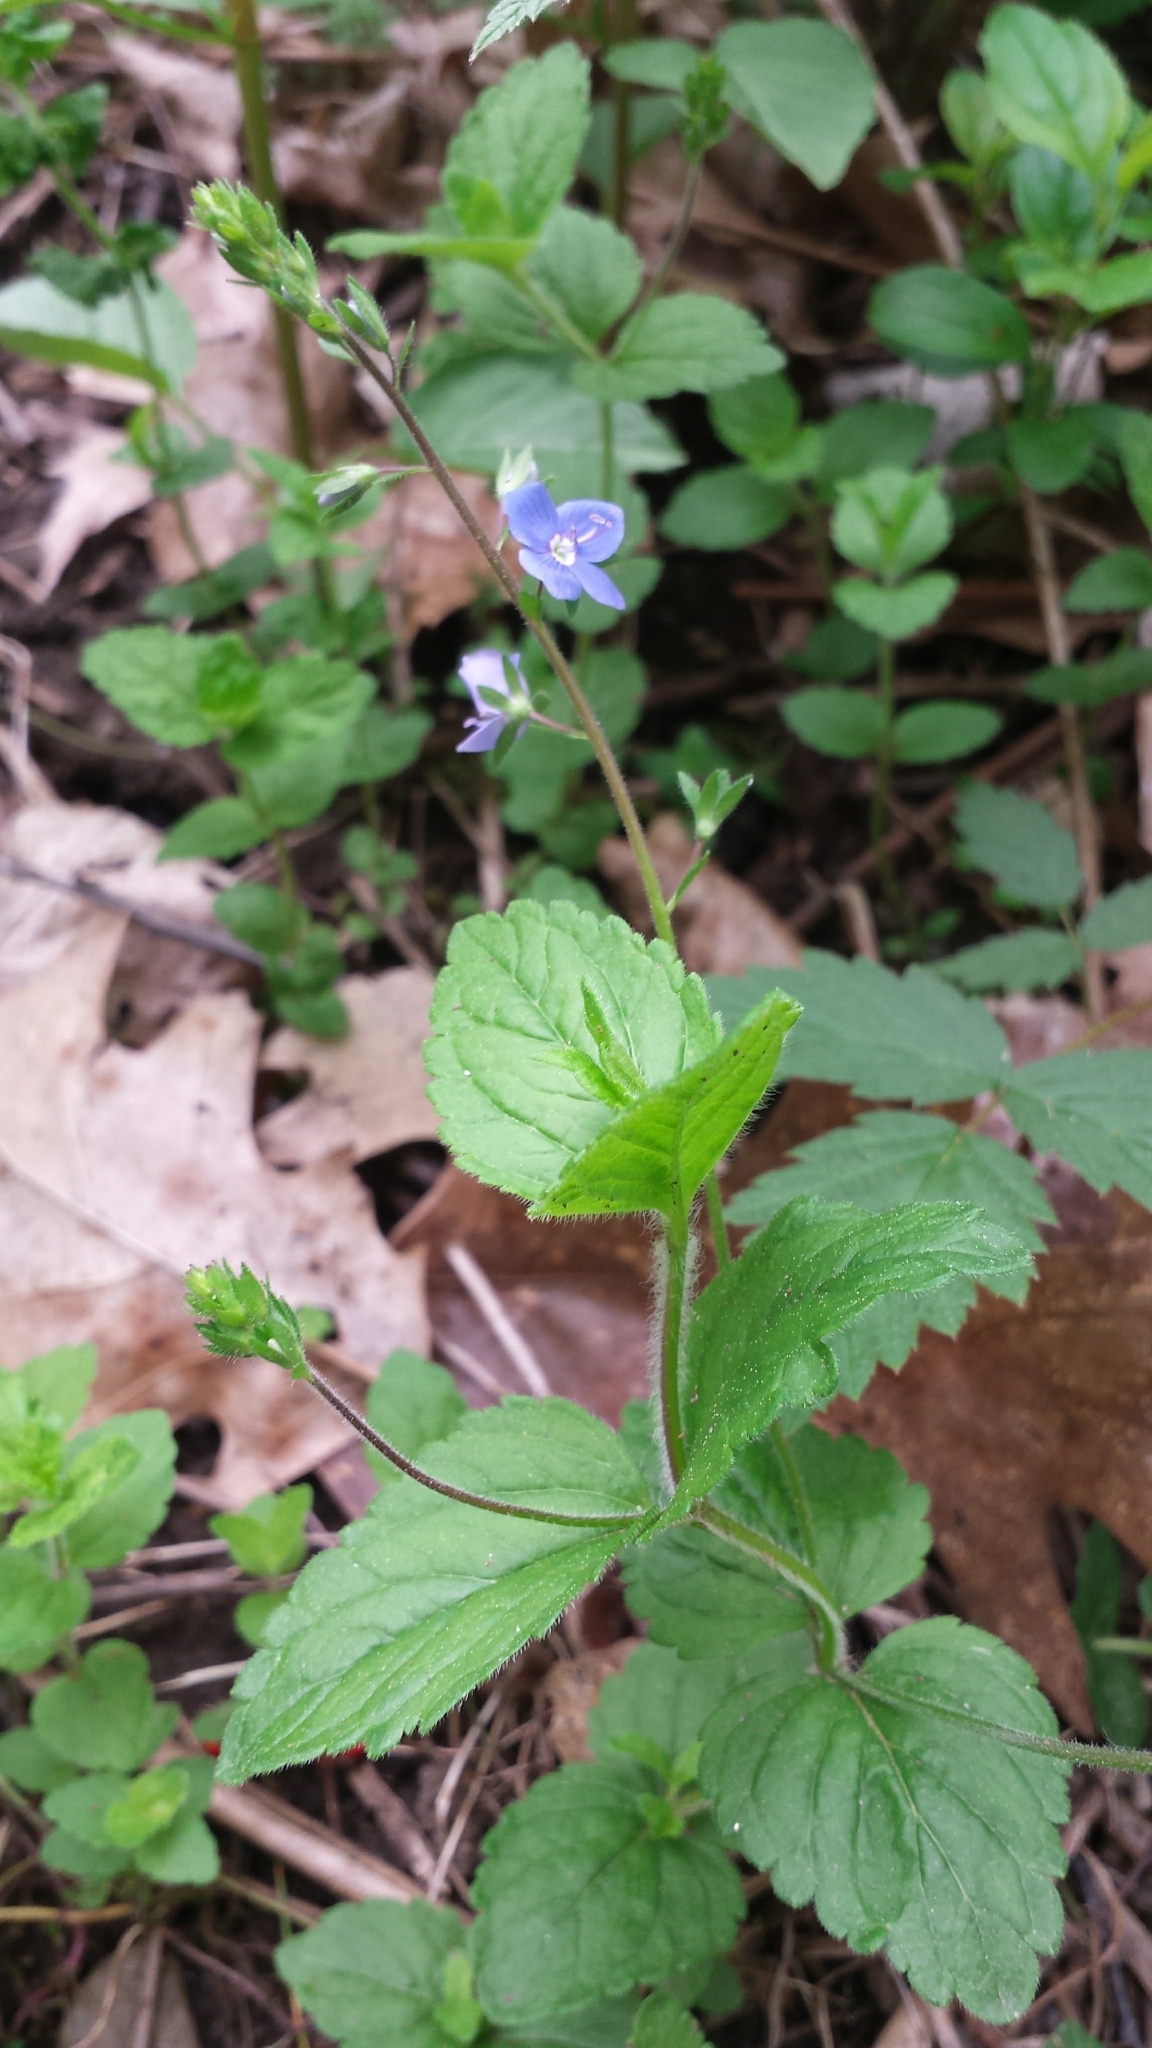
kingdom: Plantae
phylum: Tracheophyta
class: Magnoliopsida
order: Lamiales
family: Plantaginaceae
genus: Veronica
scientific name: Veronica chamaedrys
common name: Germander speedwell
